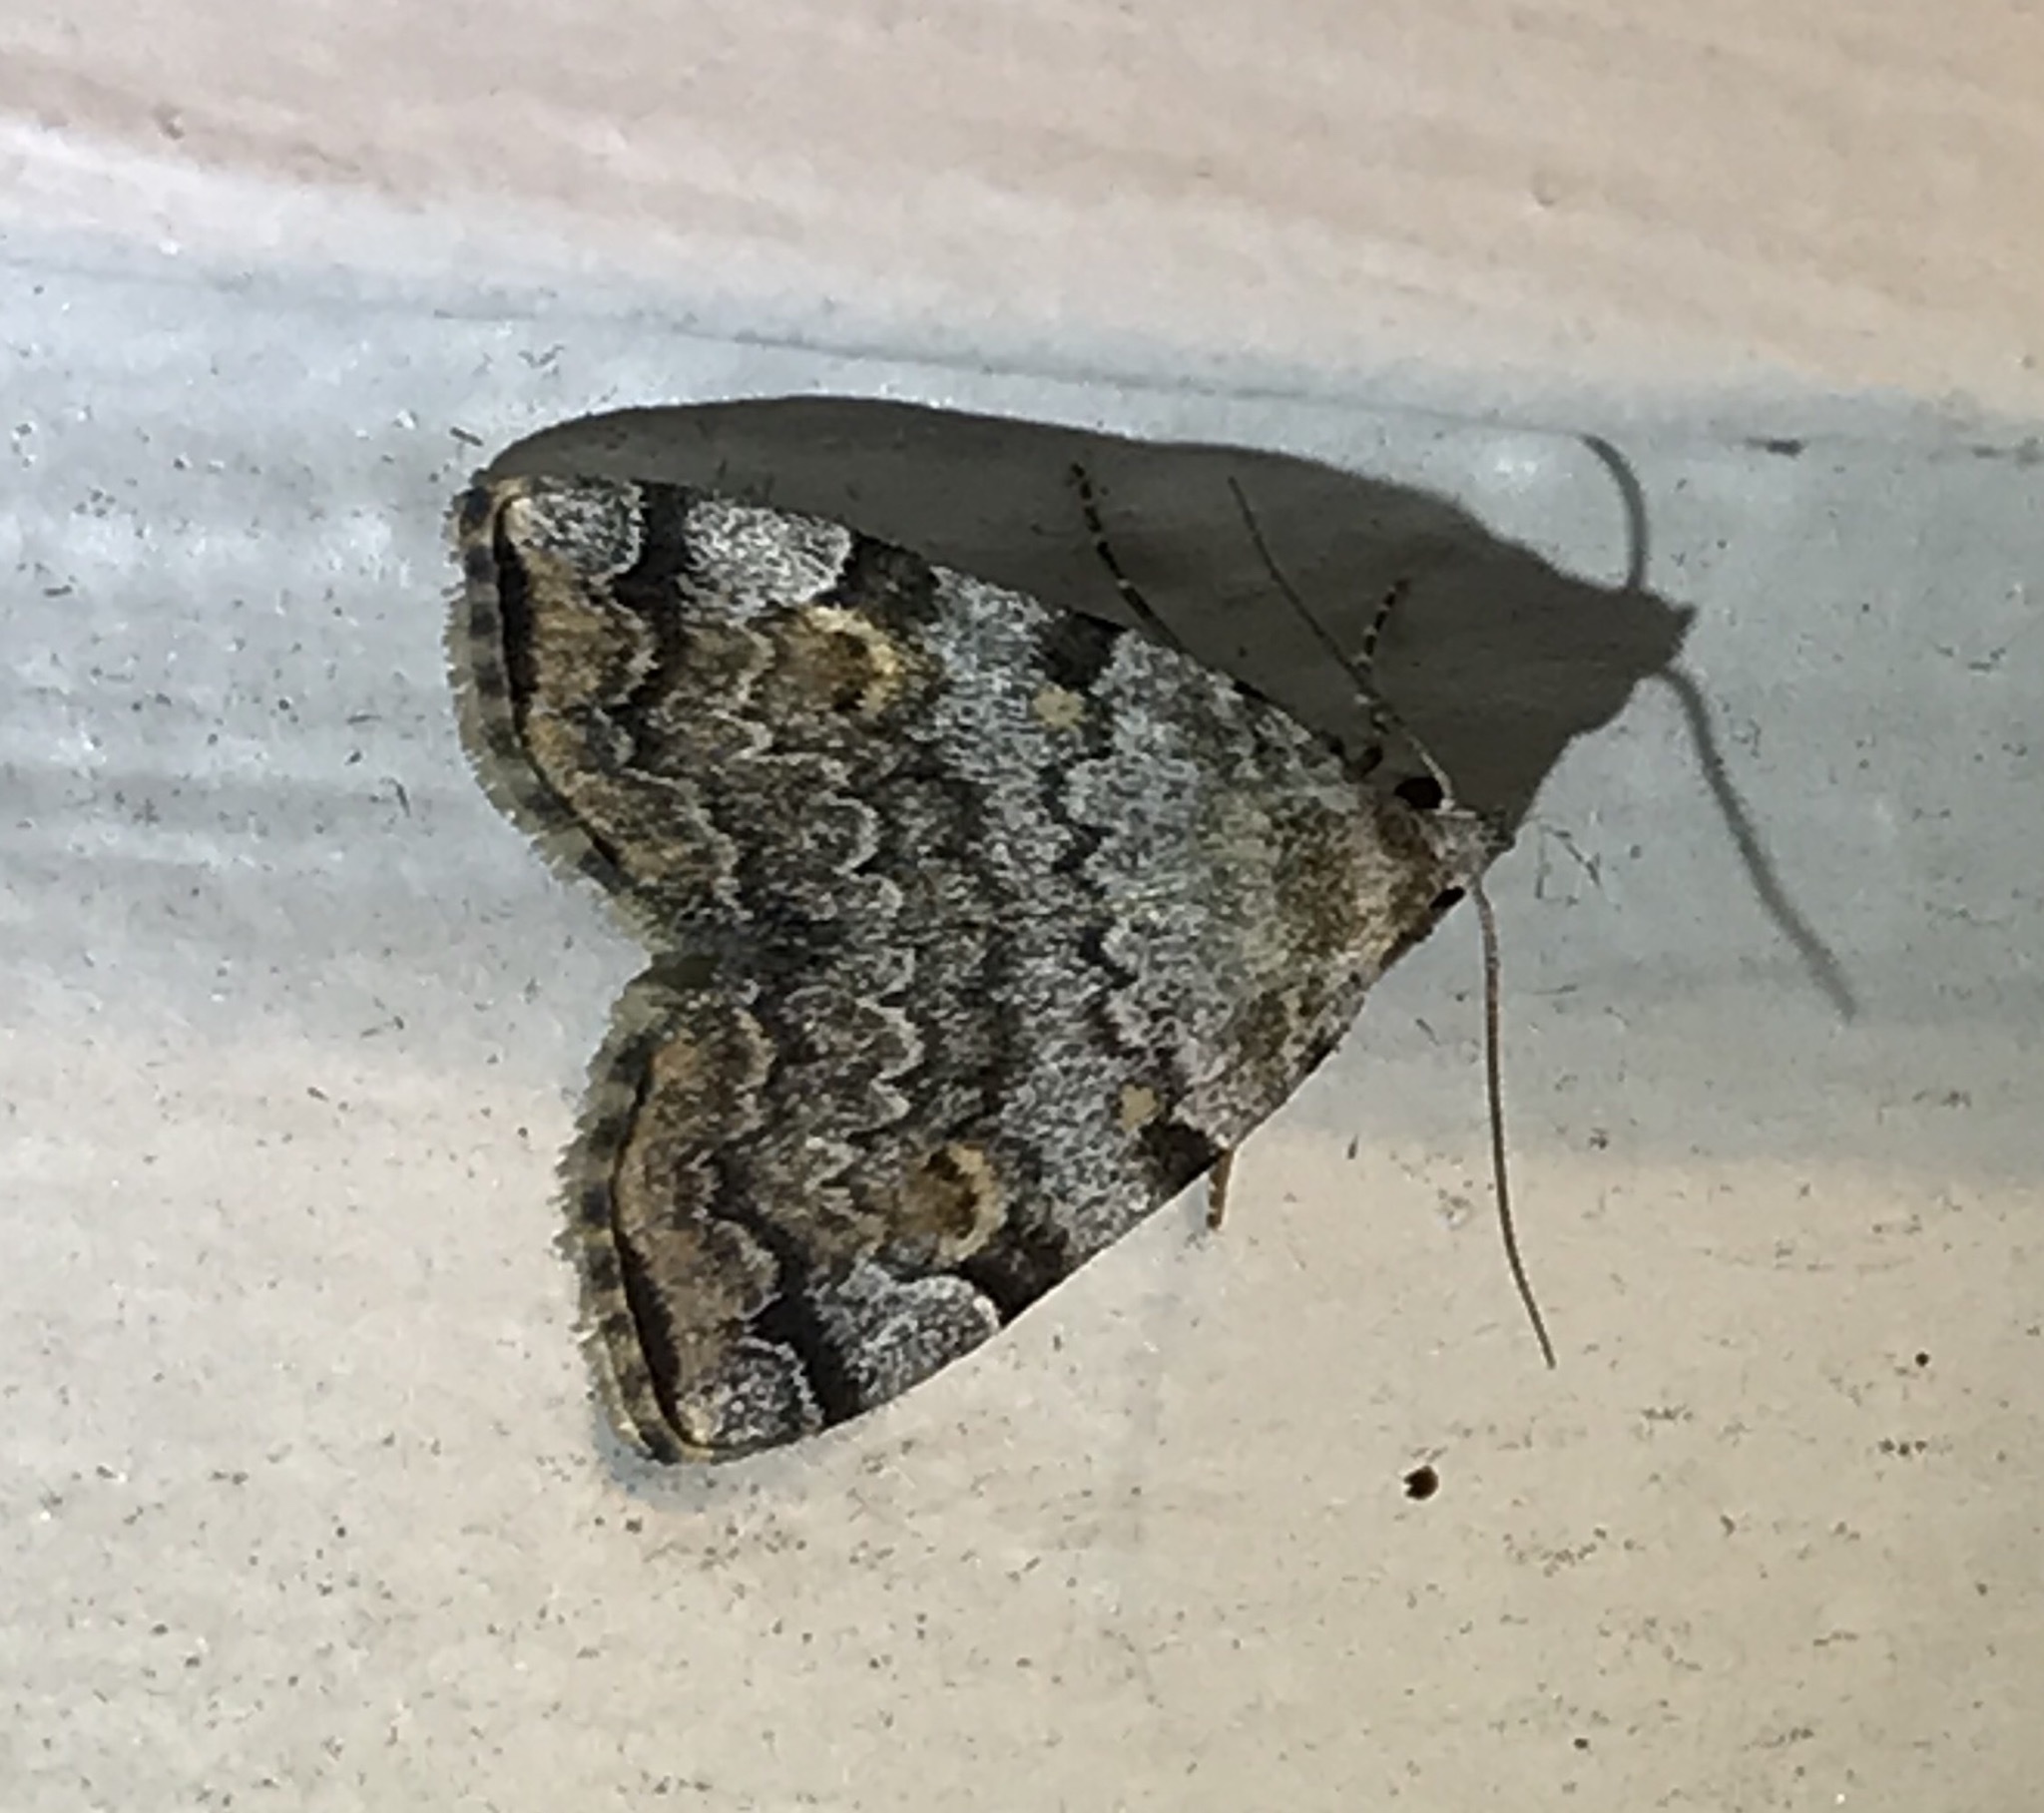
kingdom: Animalia
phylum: Arthropoda
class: Insecta
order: Lepidoptera
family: Erebidae
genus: Idia
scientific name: Idia americalis
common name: American idia moth
